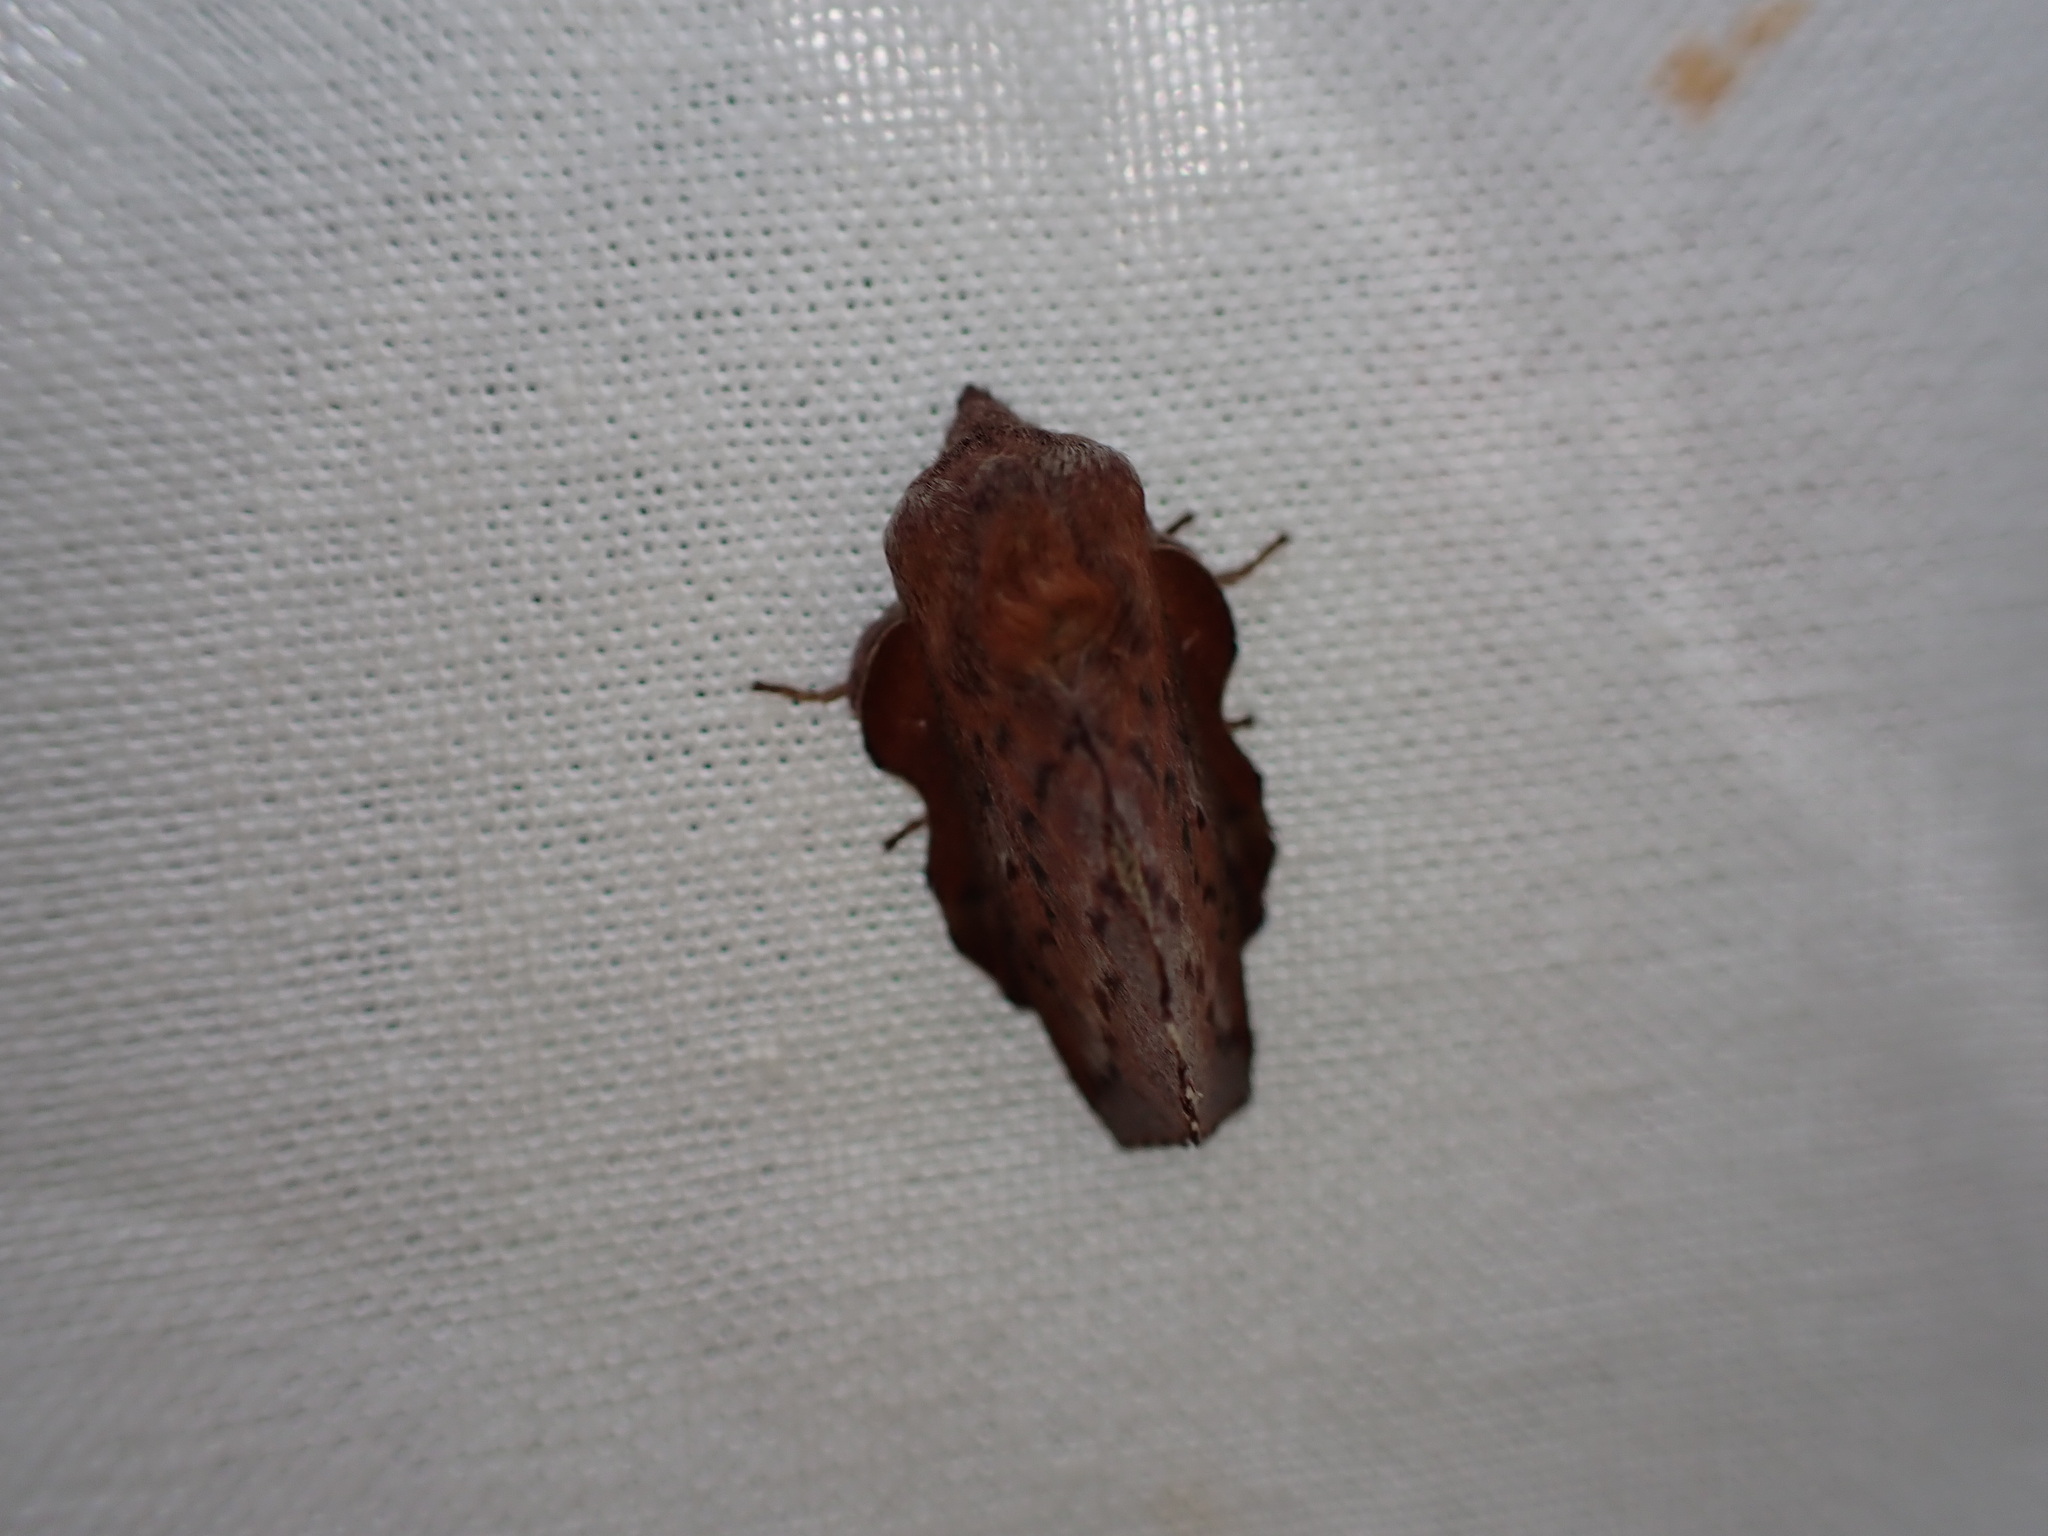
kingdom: Animalia
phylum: Arthropoda
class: Insecta
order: Lepidoptera
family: Lasiocampidae
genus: Phyllodesma
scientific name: Phyllodesma americana
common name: American lappet moth
